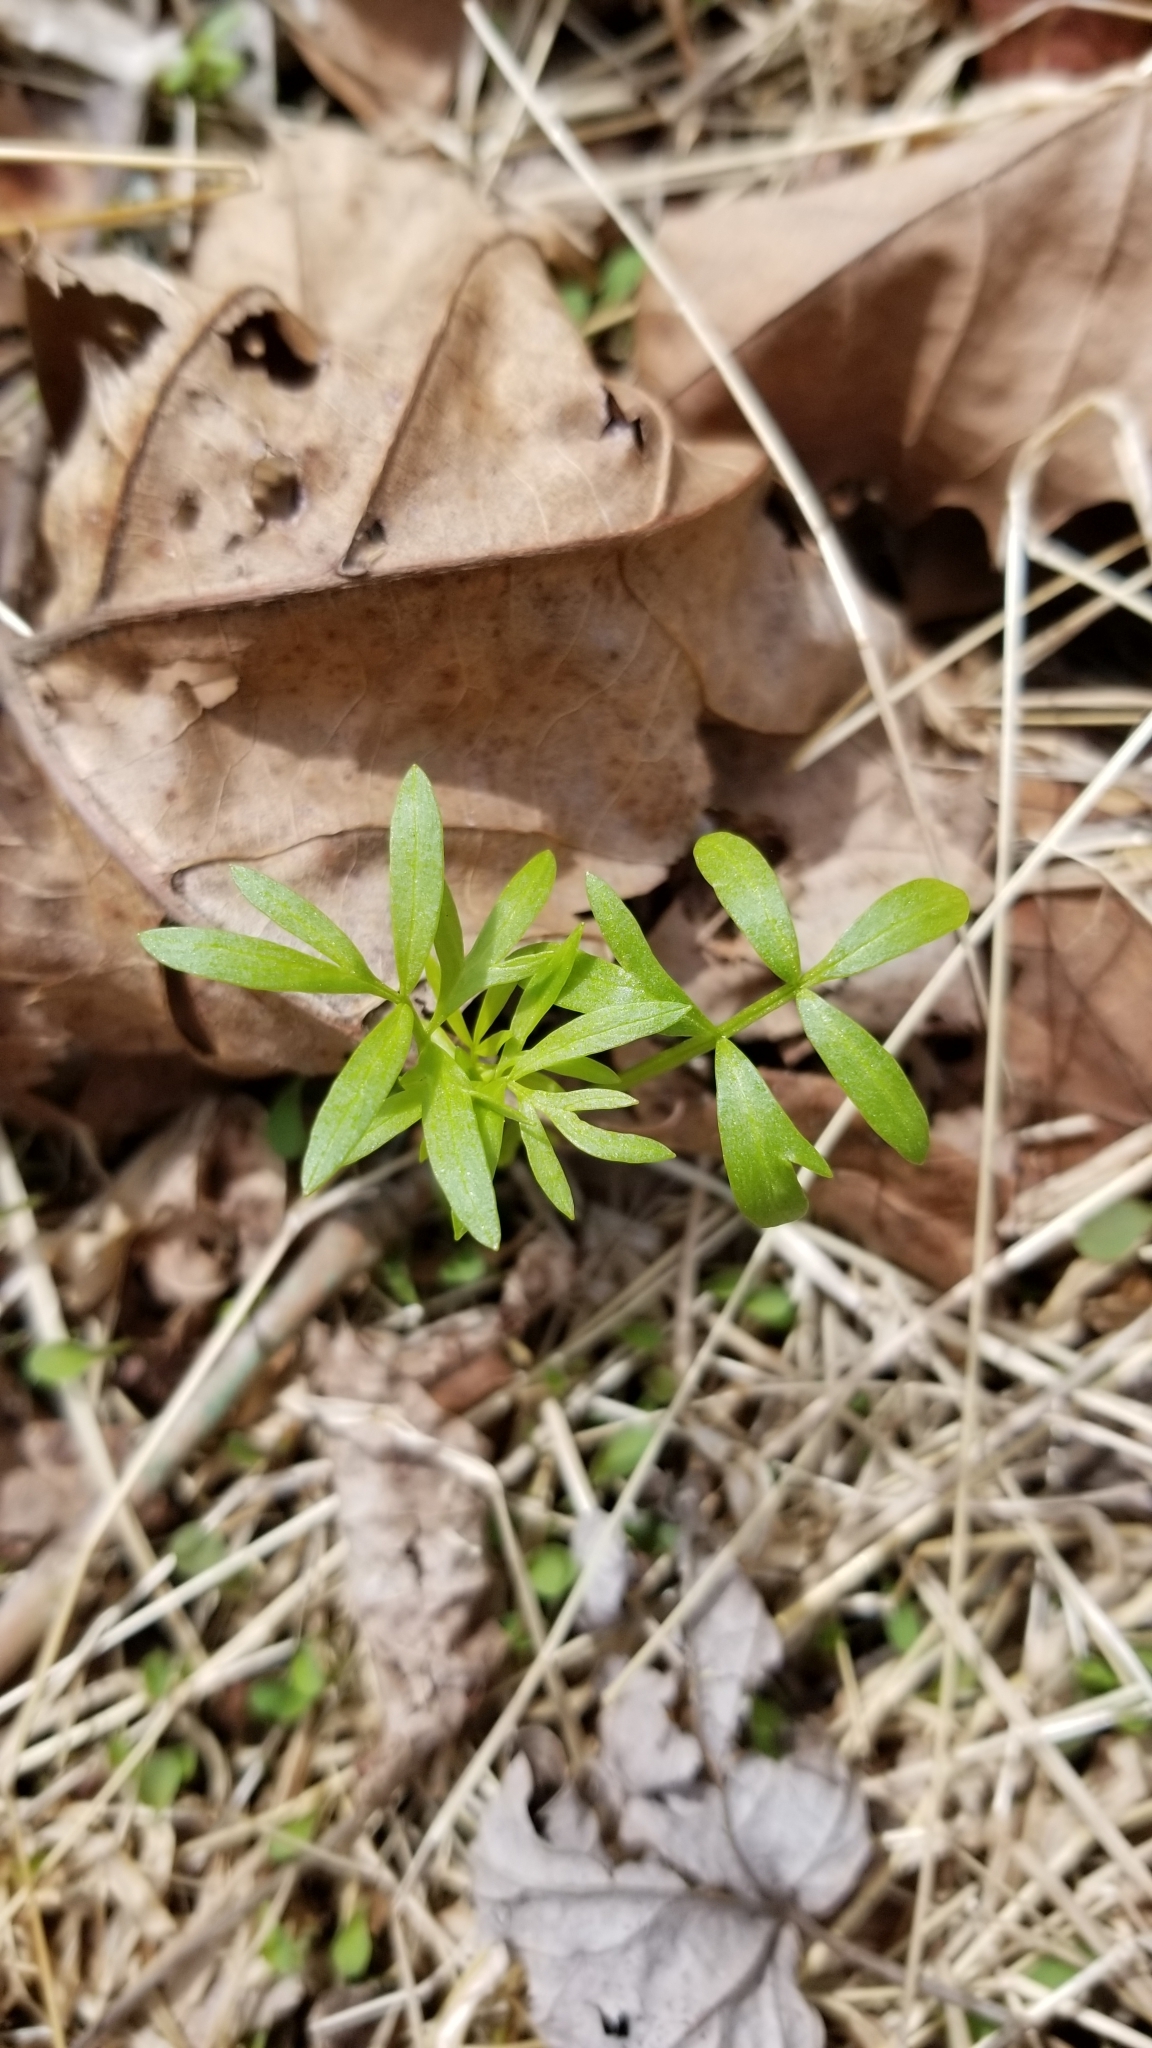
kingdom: Plantae
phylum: Tracheophyta
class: Magnoliopsida
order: Brassicales
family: Limnanthaceae
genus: Floerkea
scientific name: Floerkea proserpinacoides
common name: False mermaid
